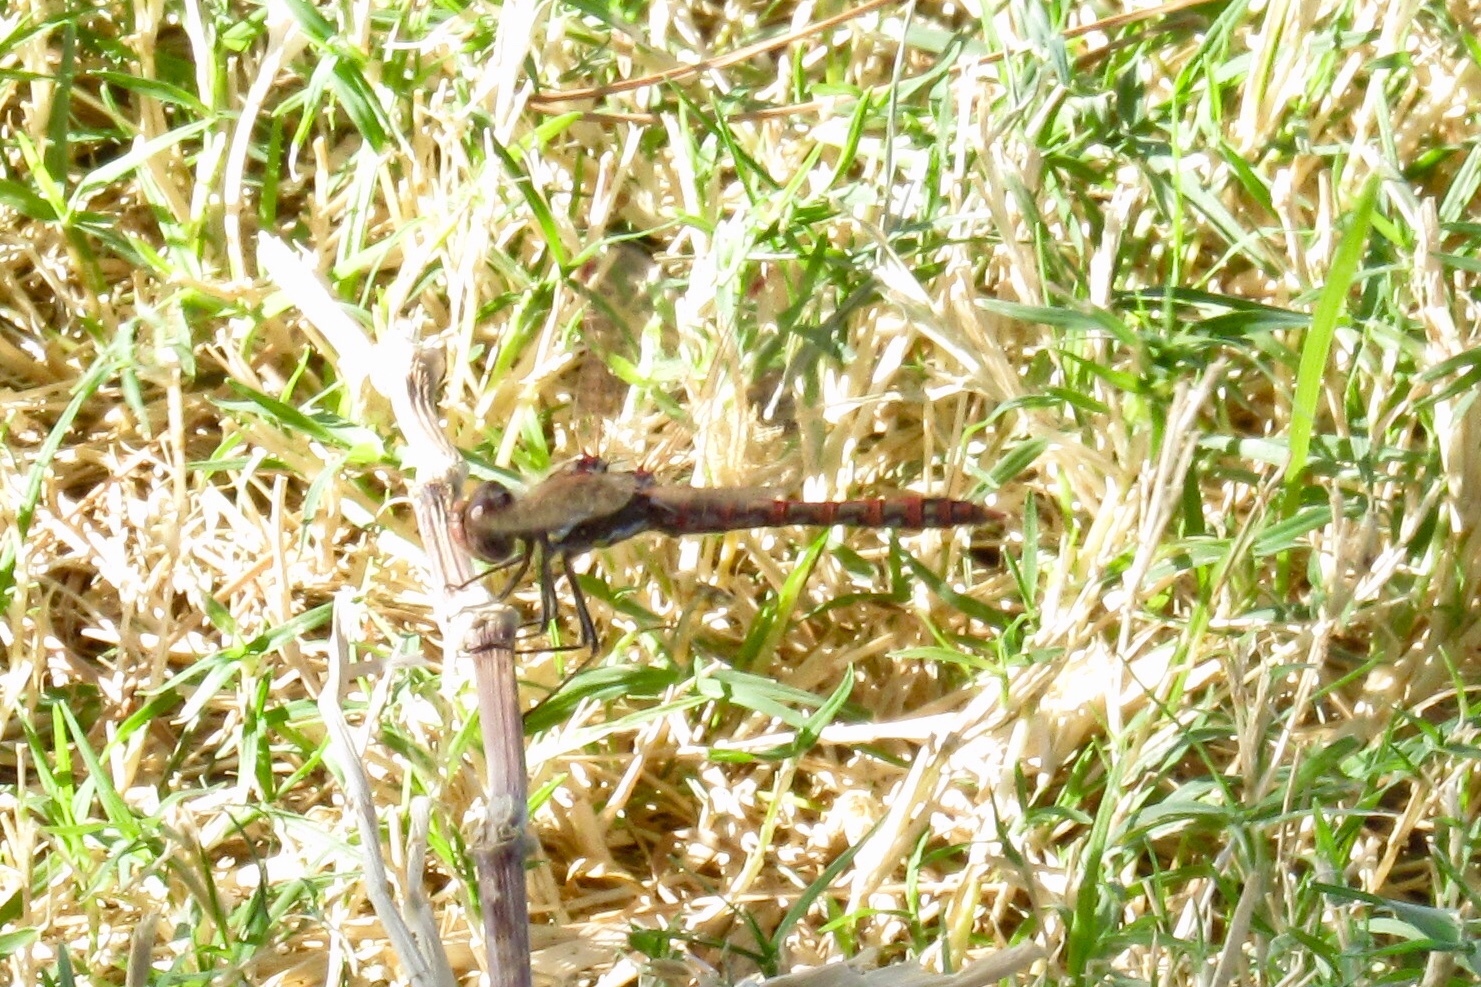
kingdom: Animalia
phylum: Arthropoda
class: Insecta
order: Odonata
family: Libellulidae
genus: Sympetrum
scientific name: Sympetrum corruptum
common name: Variegated meadowhawk
